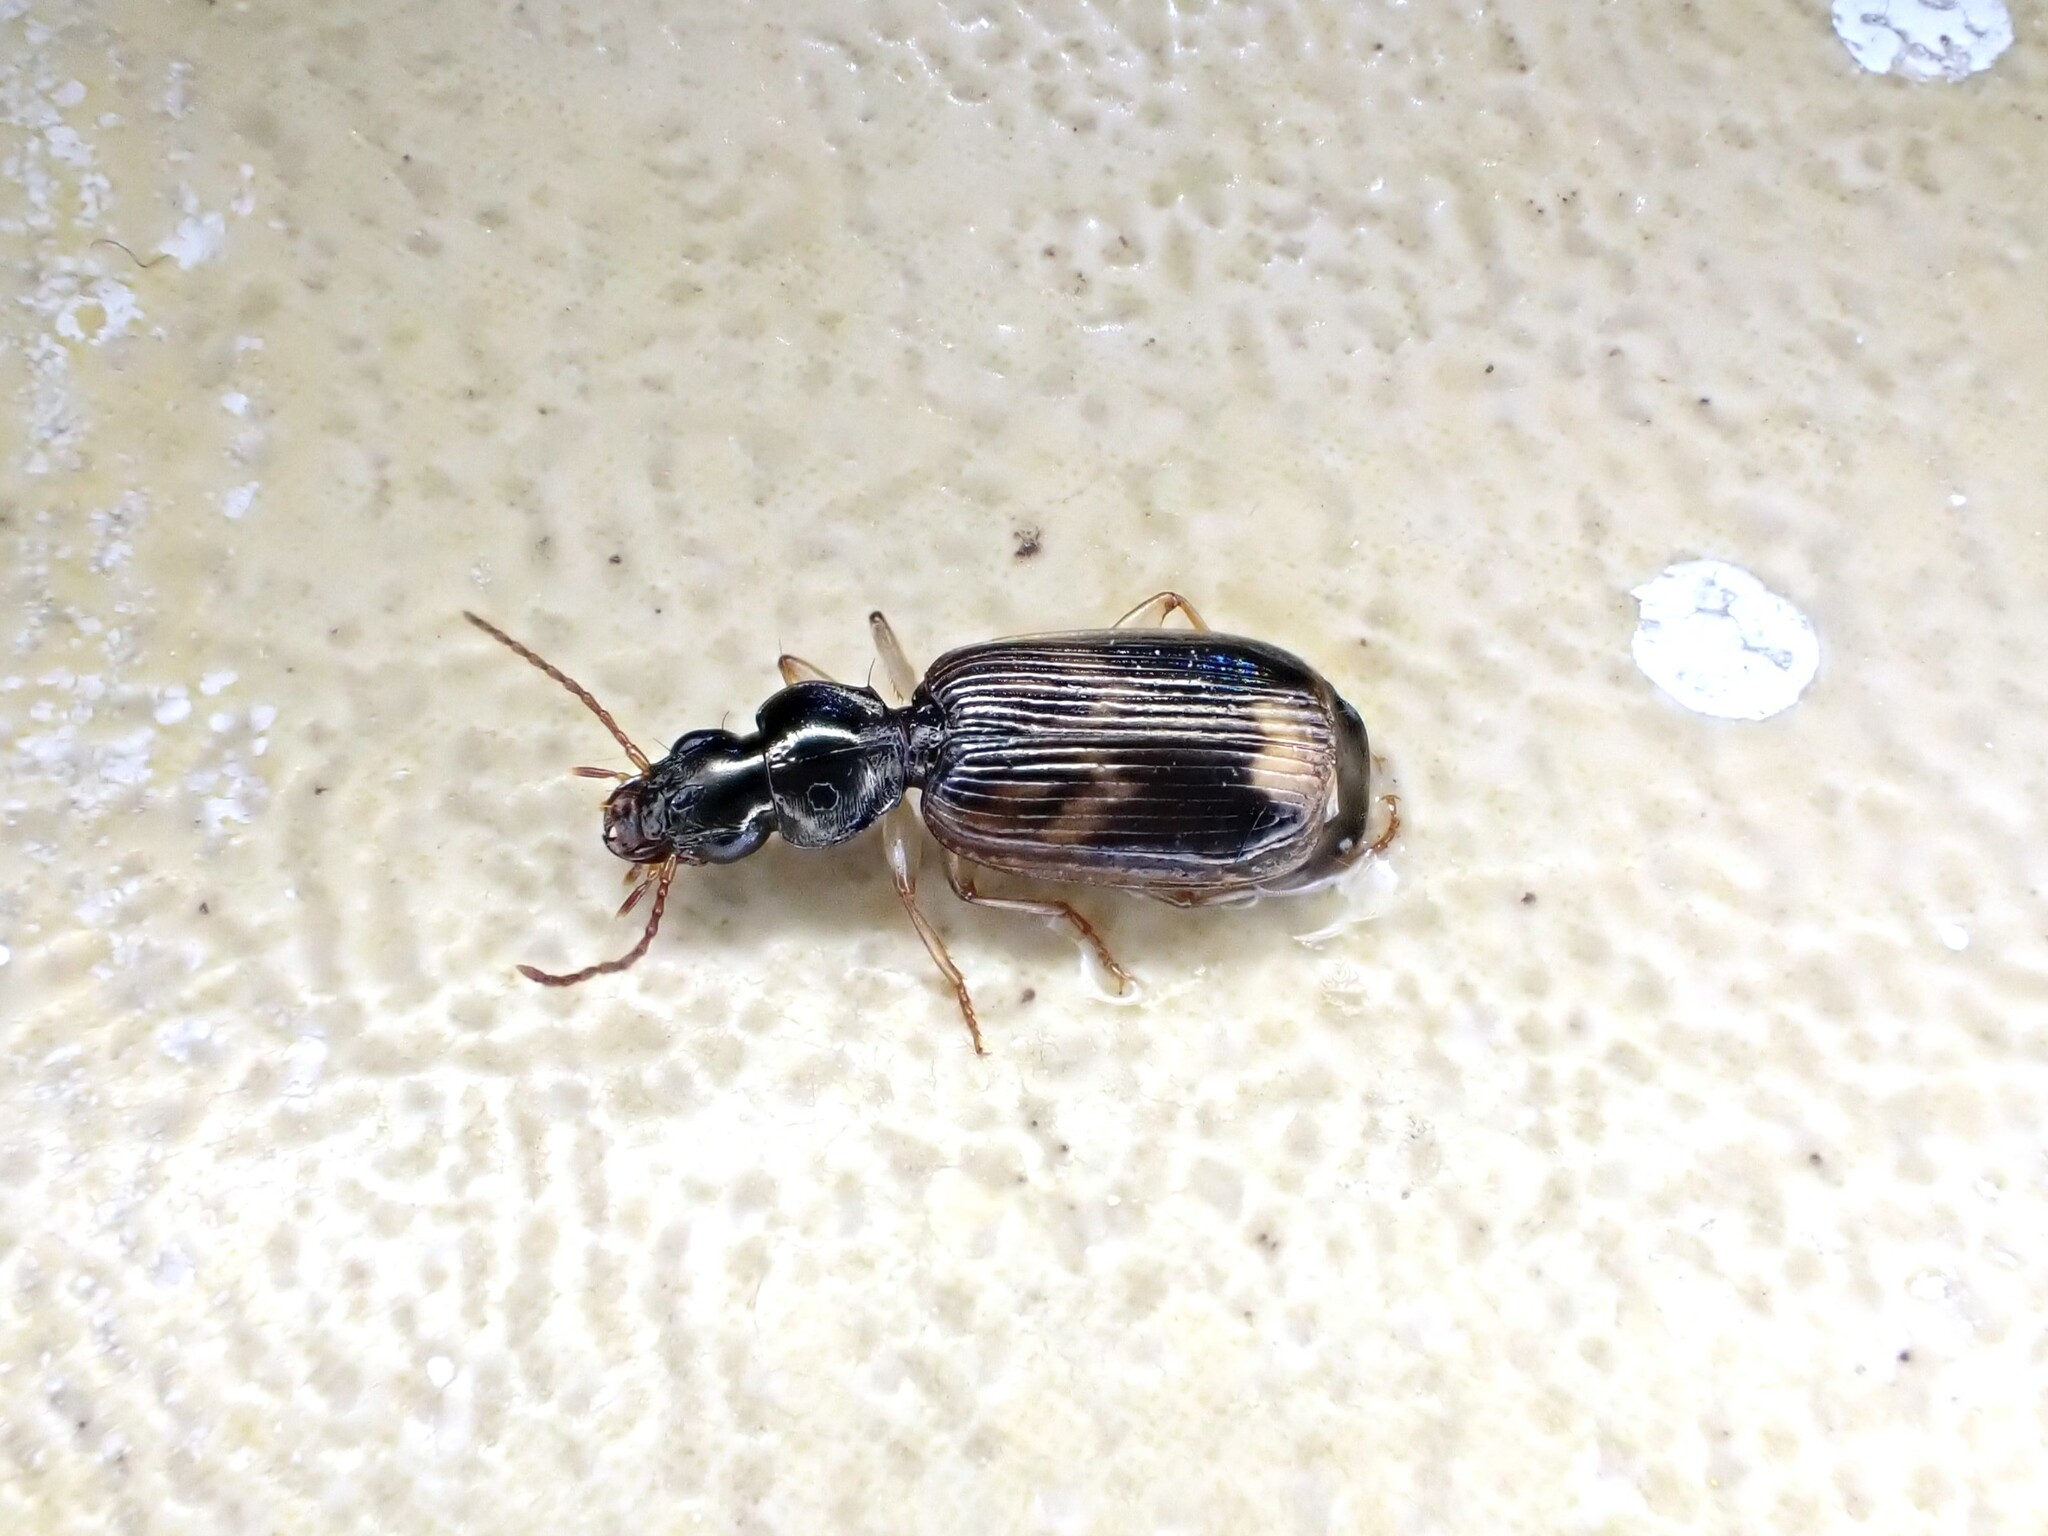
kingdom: Animalia
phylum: Arthropoda
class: Insecta
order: Coleoptera
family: Carabidae
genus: Anomotarus
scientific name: Anomotarus variegatus
